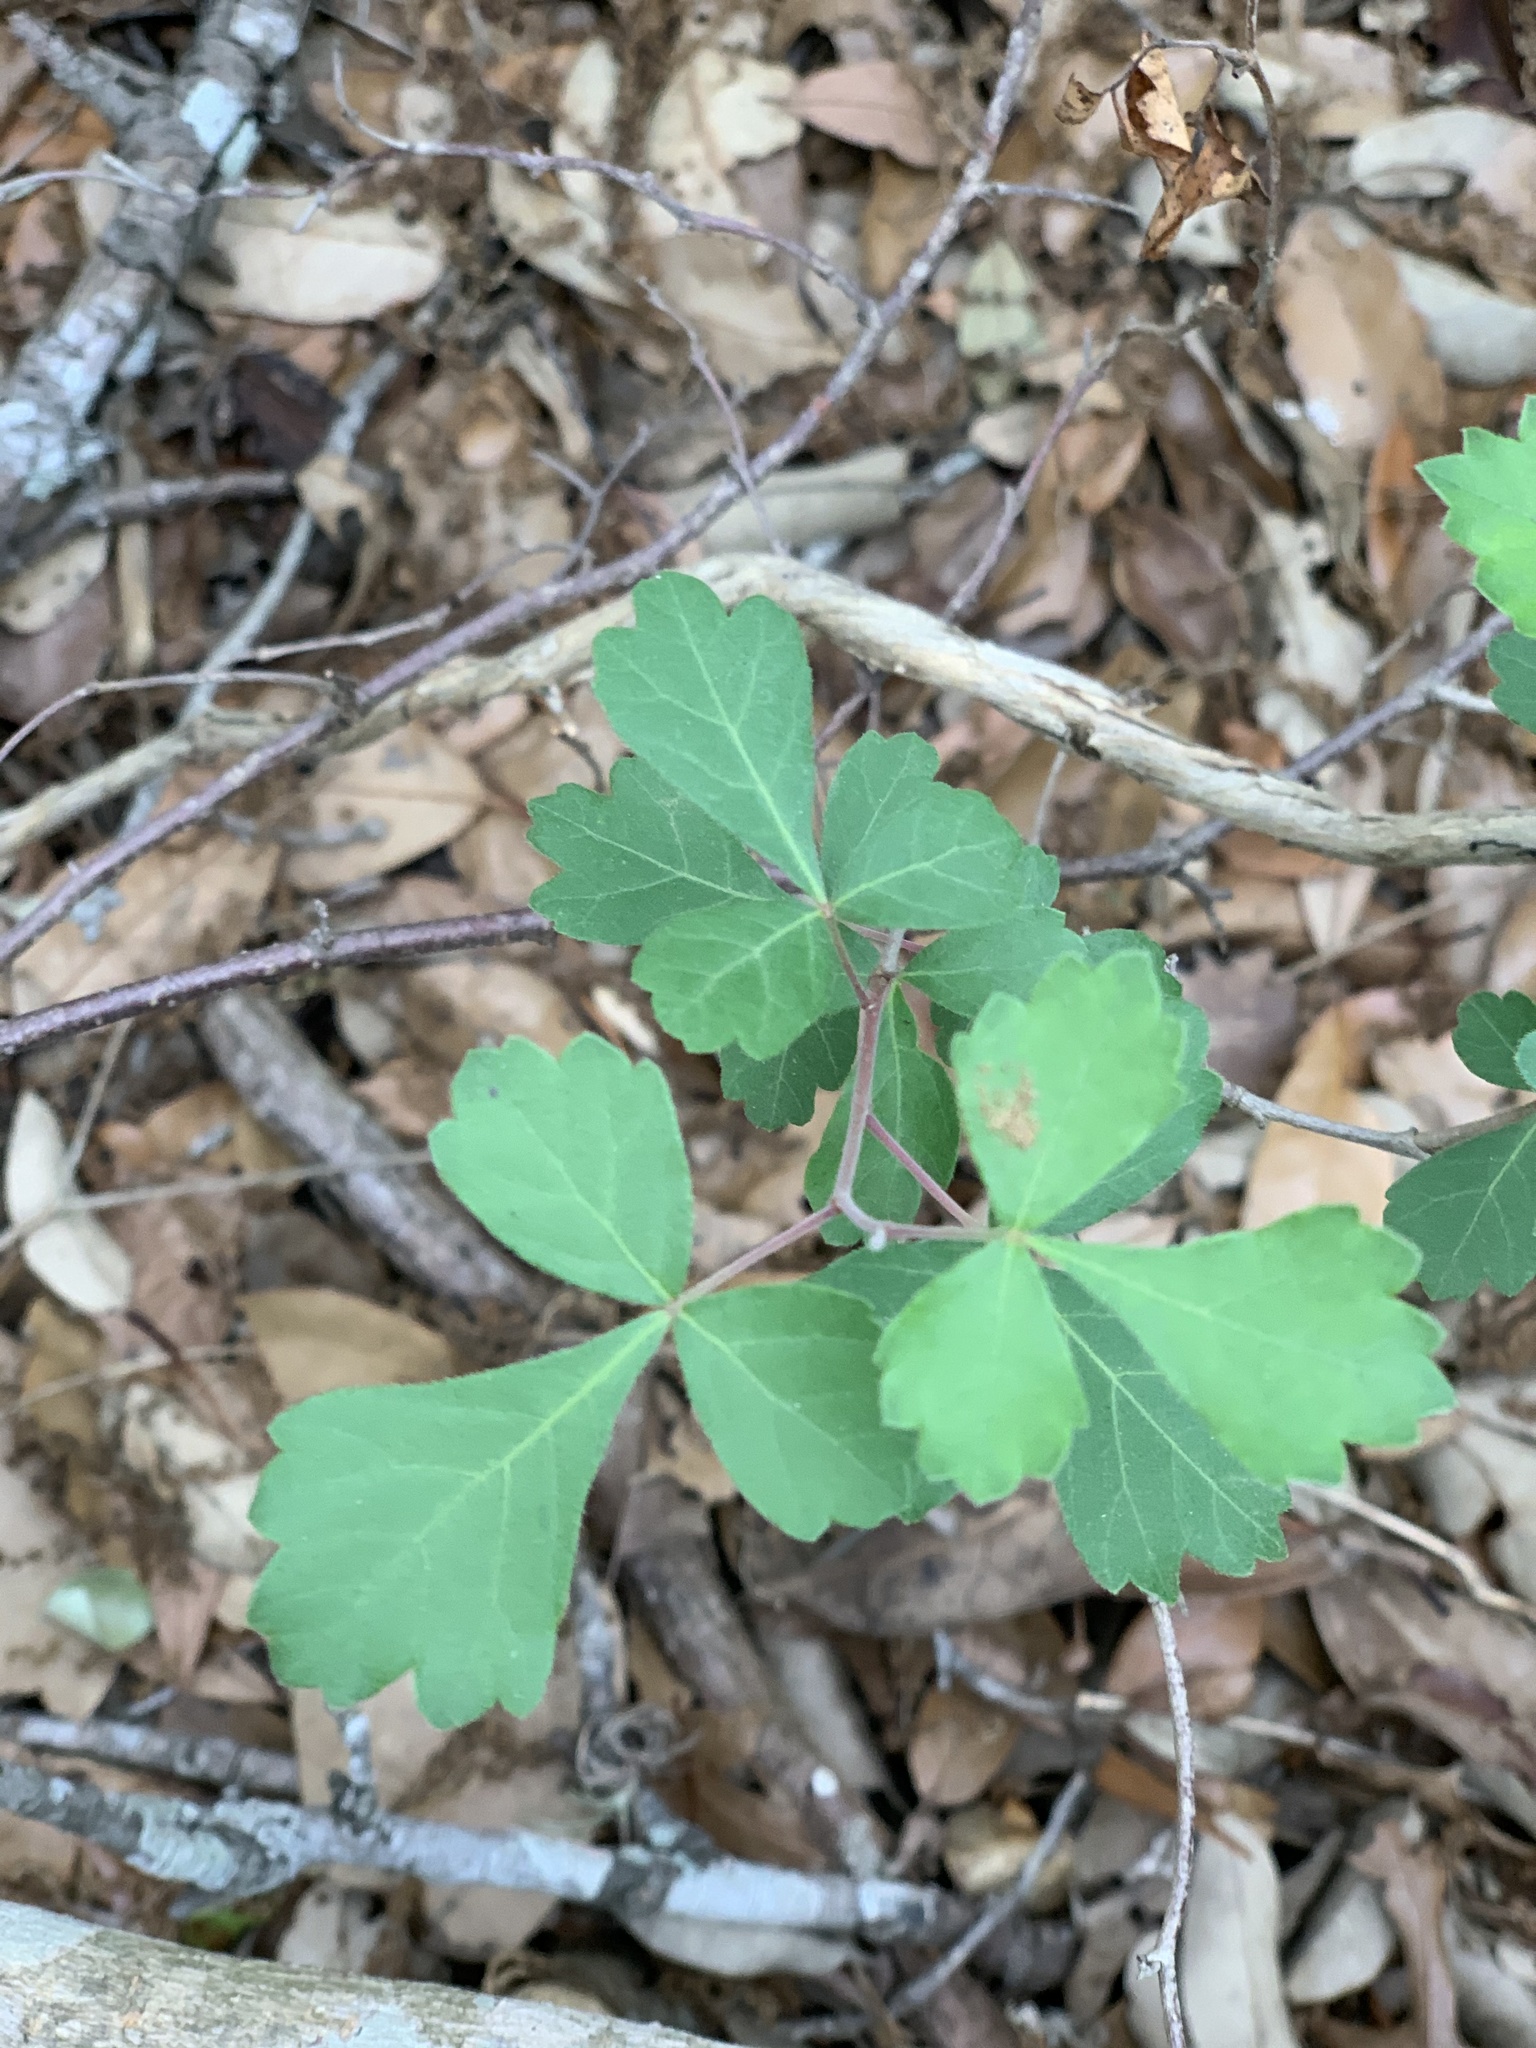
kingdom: Plantae
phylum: Tracheophyta
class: Magnoliopsida
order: Sapindales
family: Anacardiaceae
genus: Rhus
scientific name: Rhus aromatica
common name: Aromatic sumac
